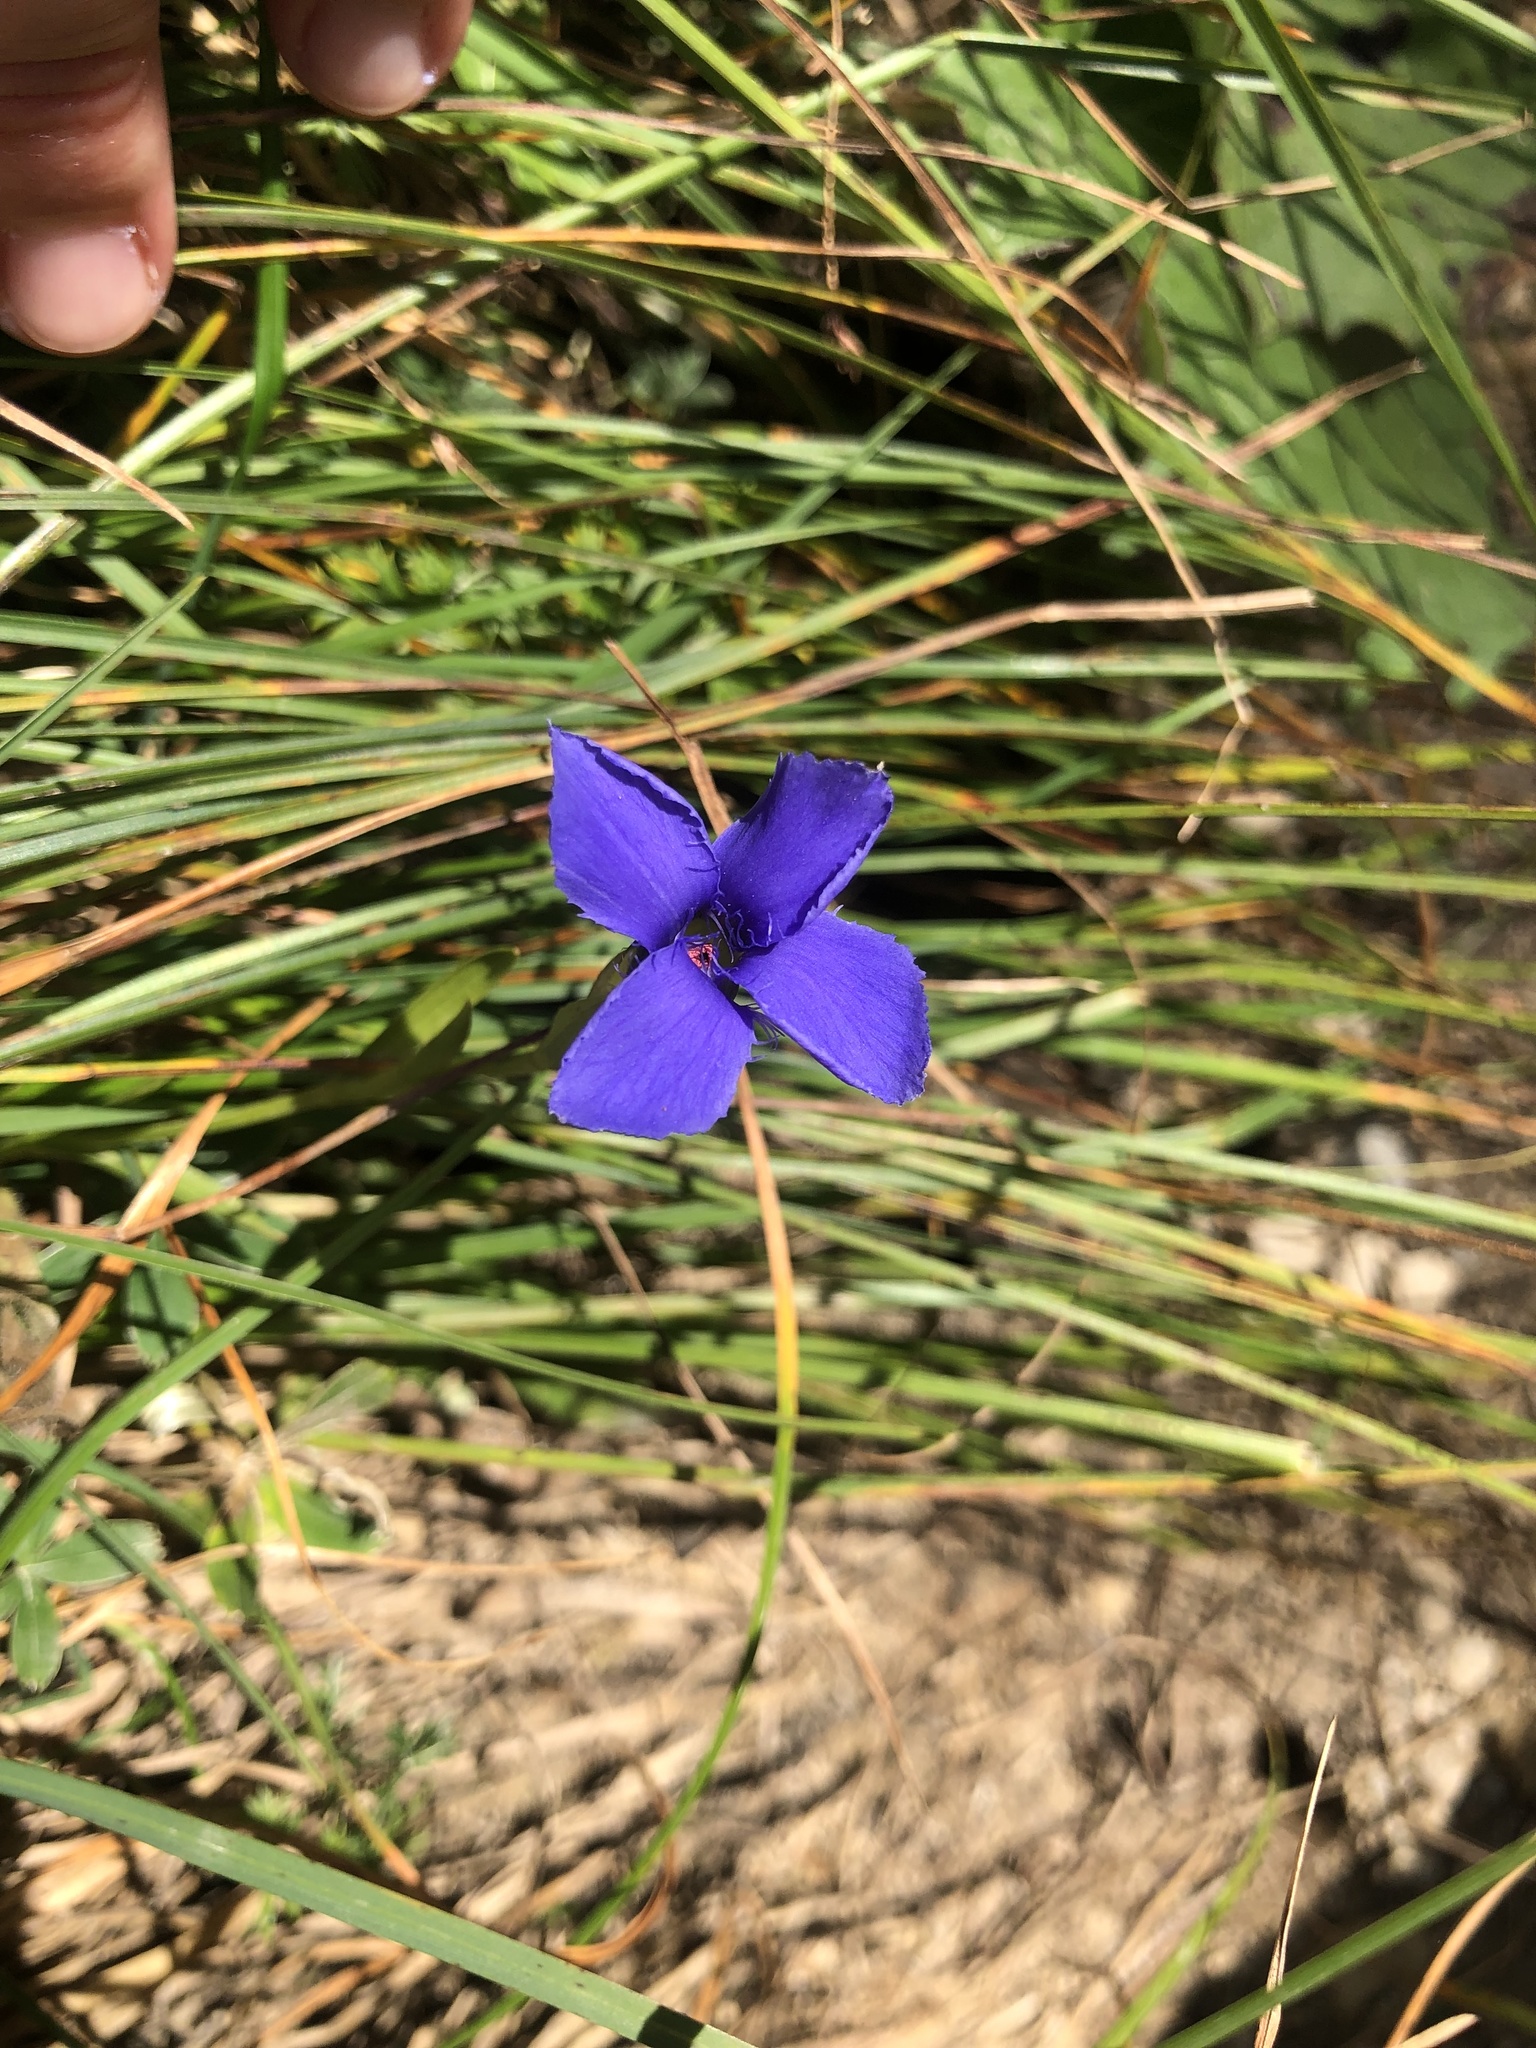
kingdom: Plantae
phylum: Tracheophyta
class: Magnoliopsida
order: Gentianales
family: Gentianaceae
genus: Gentianopsis
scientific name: Gentianopsis ciliata
